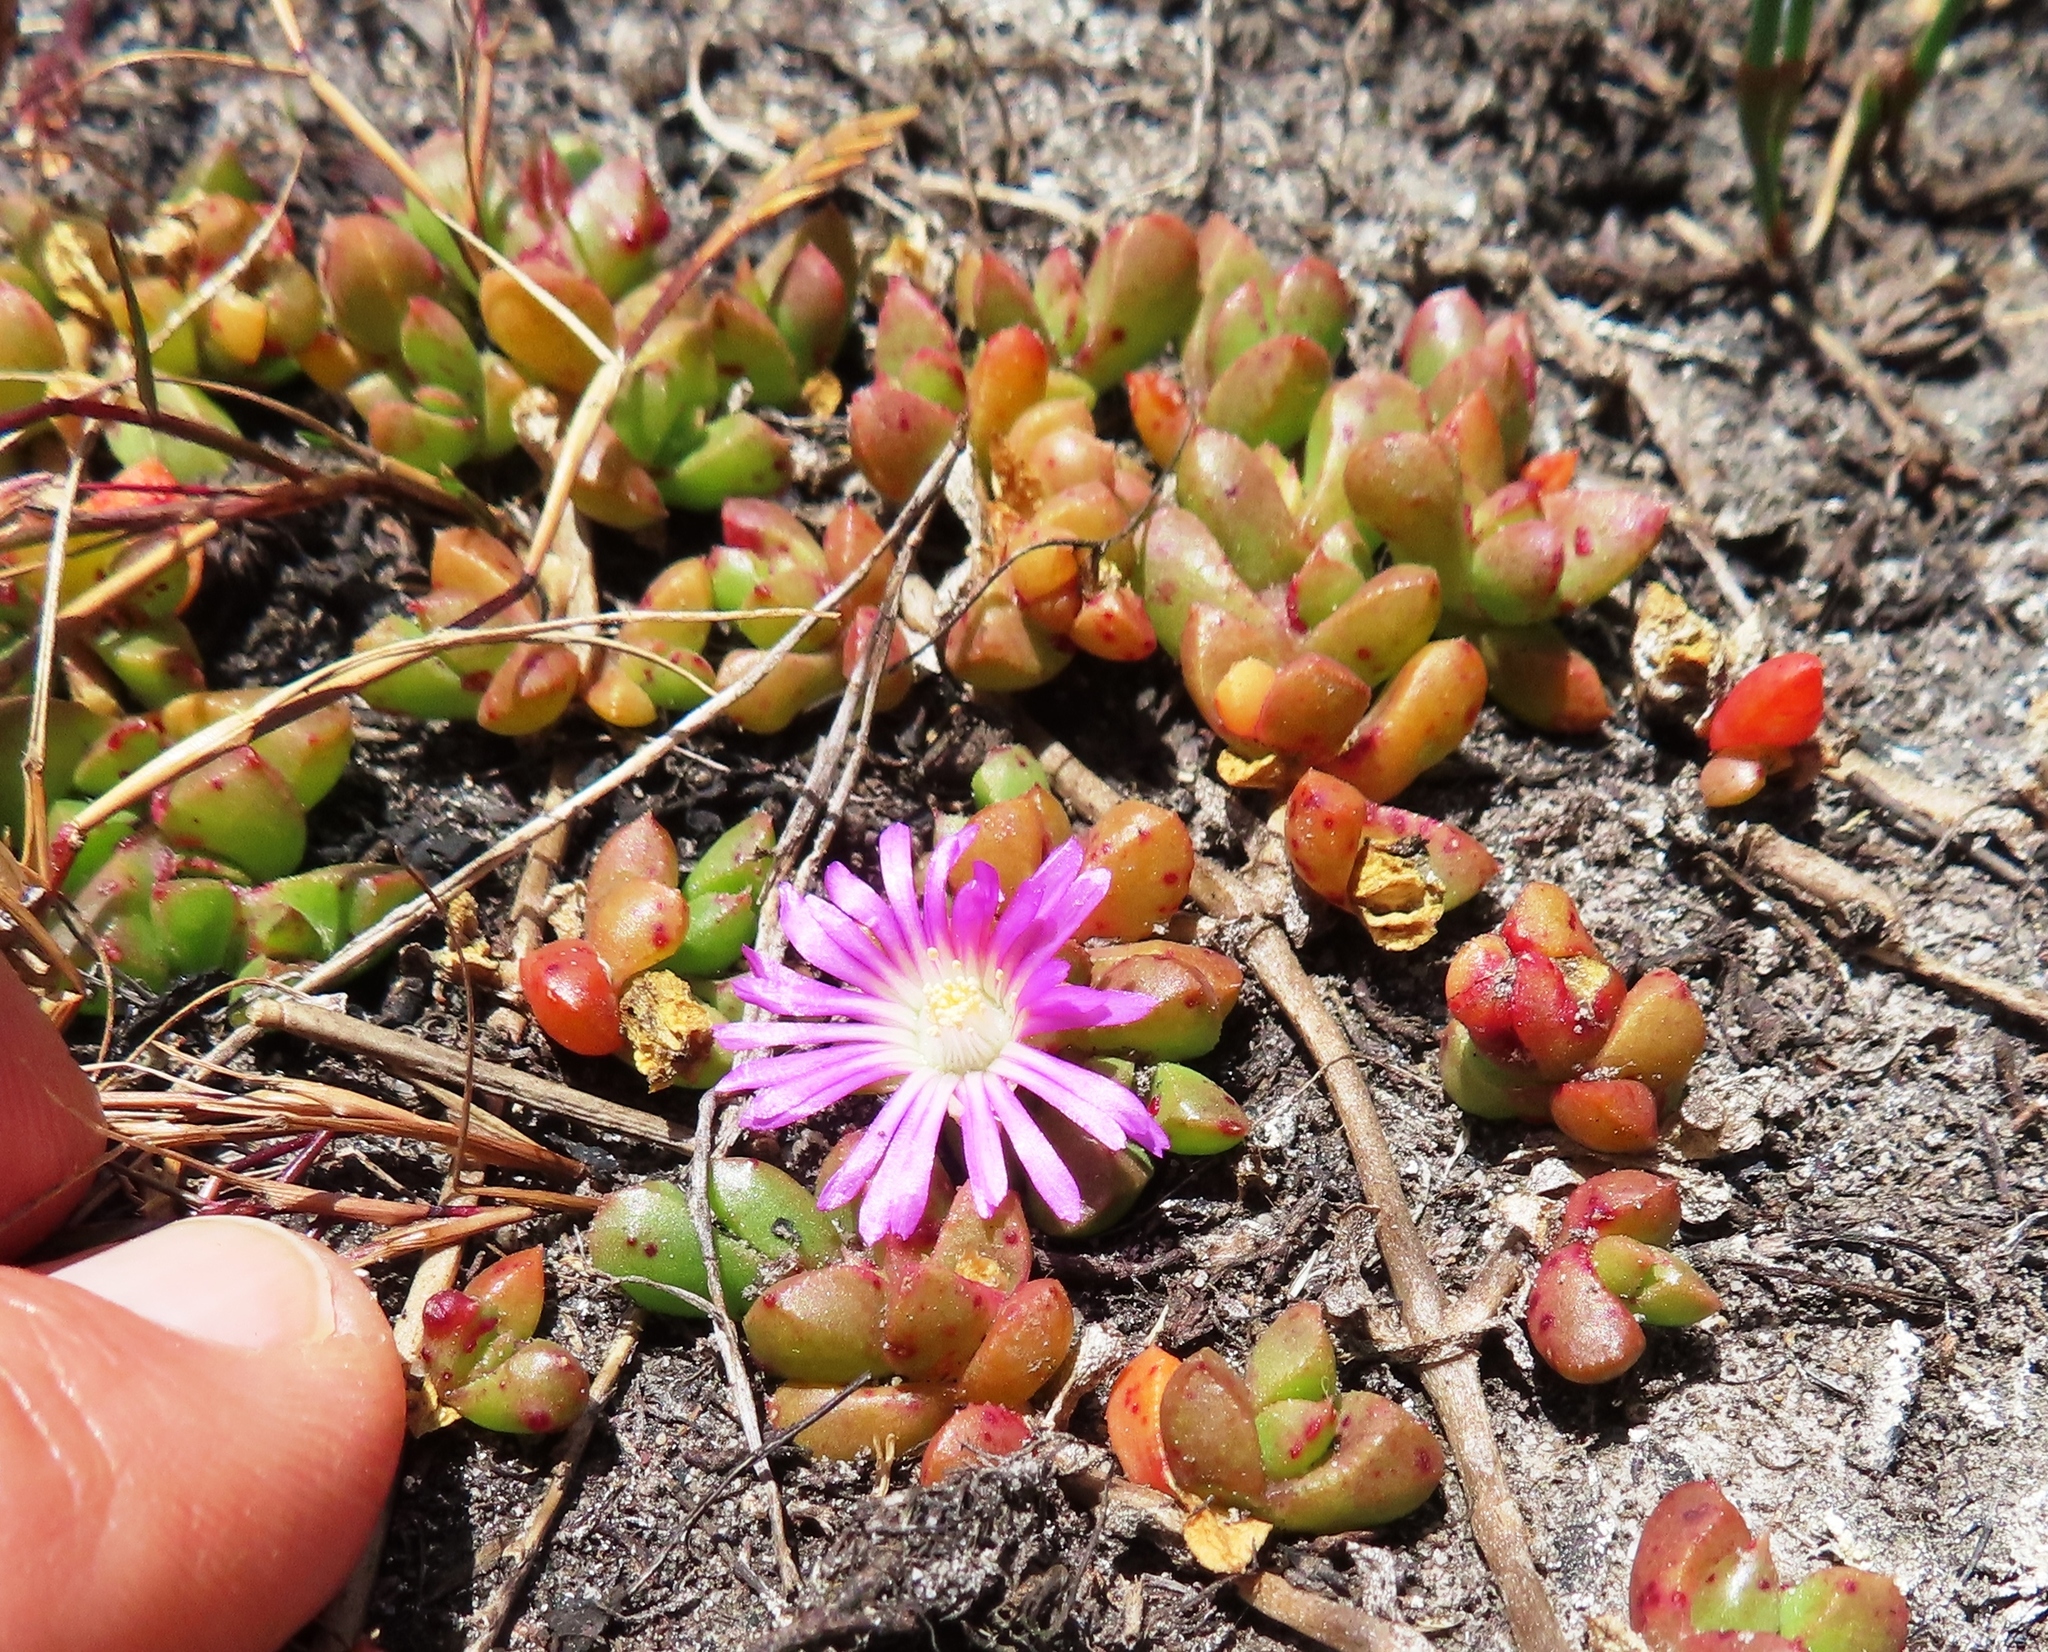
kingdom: Plantae
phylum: Tracheophyta
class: Magnoliopsida
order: Caryophyllales
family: Aizoaceae
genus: Disphyma
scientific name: Disphyma dunsdonii
